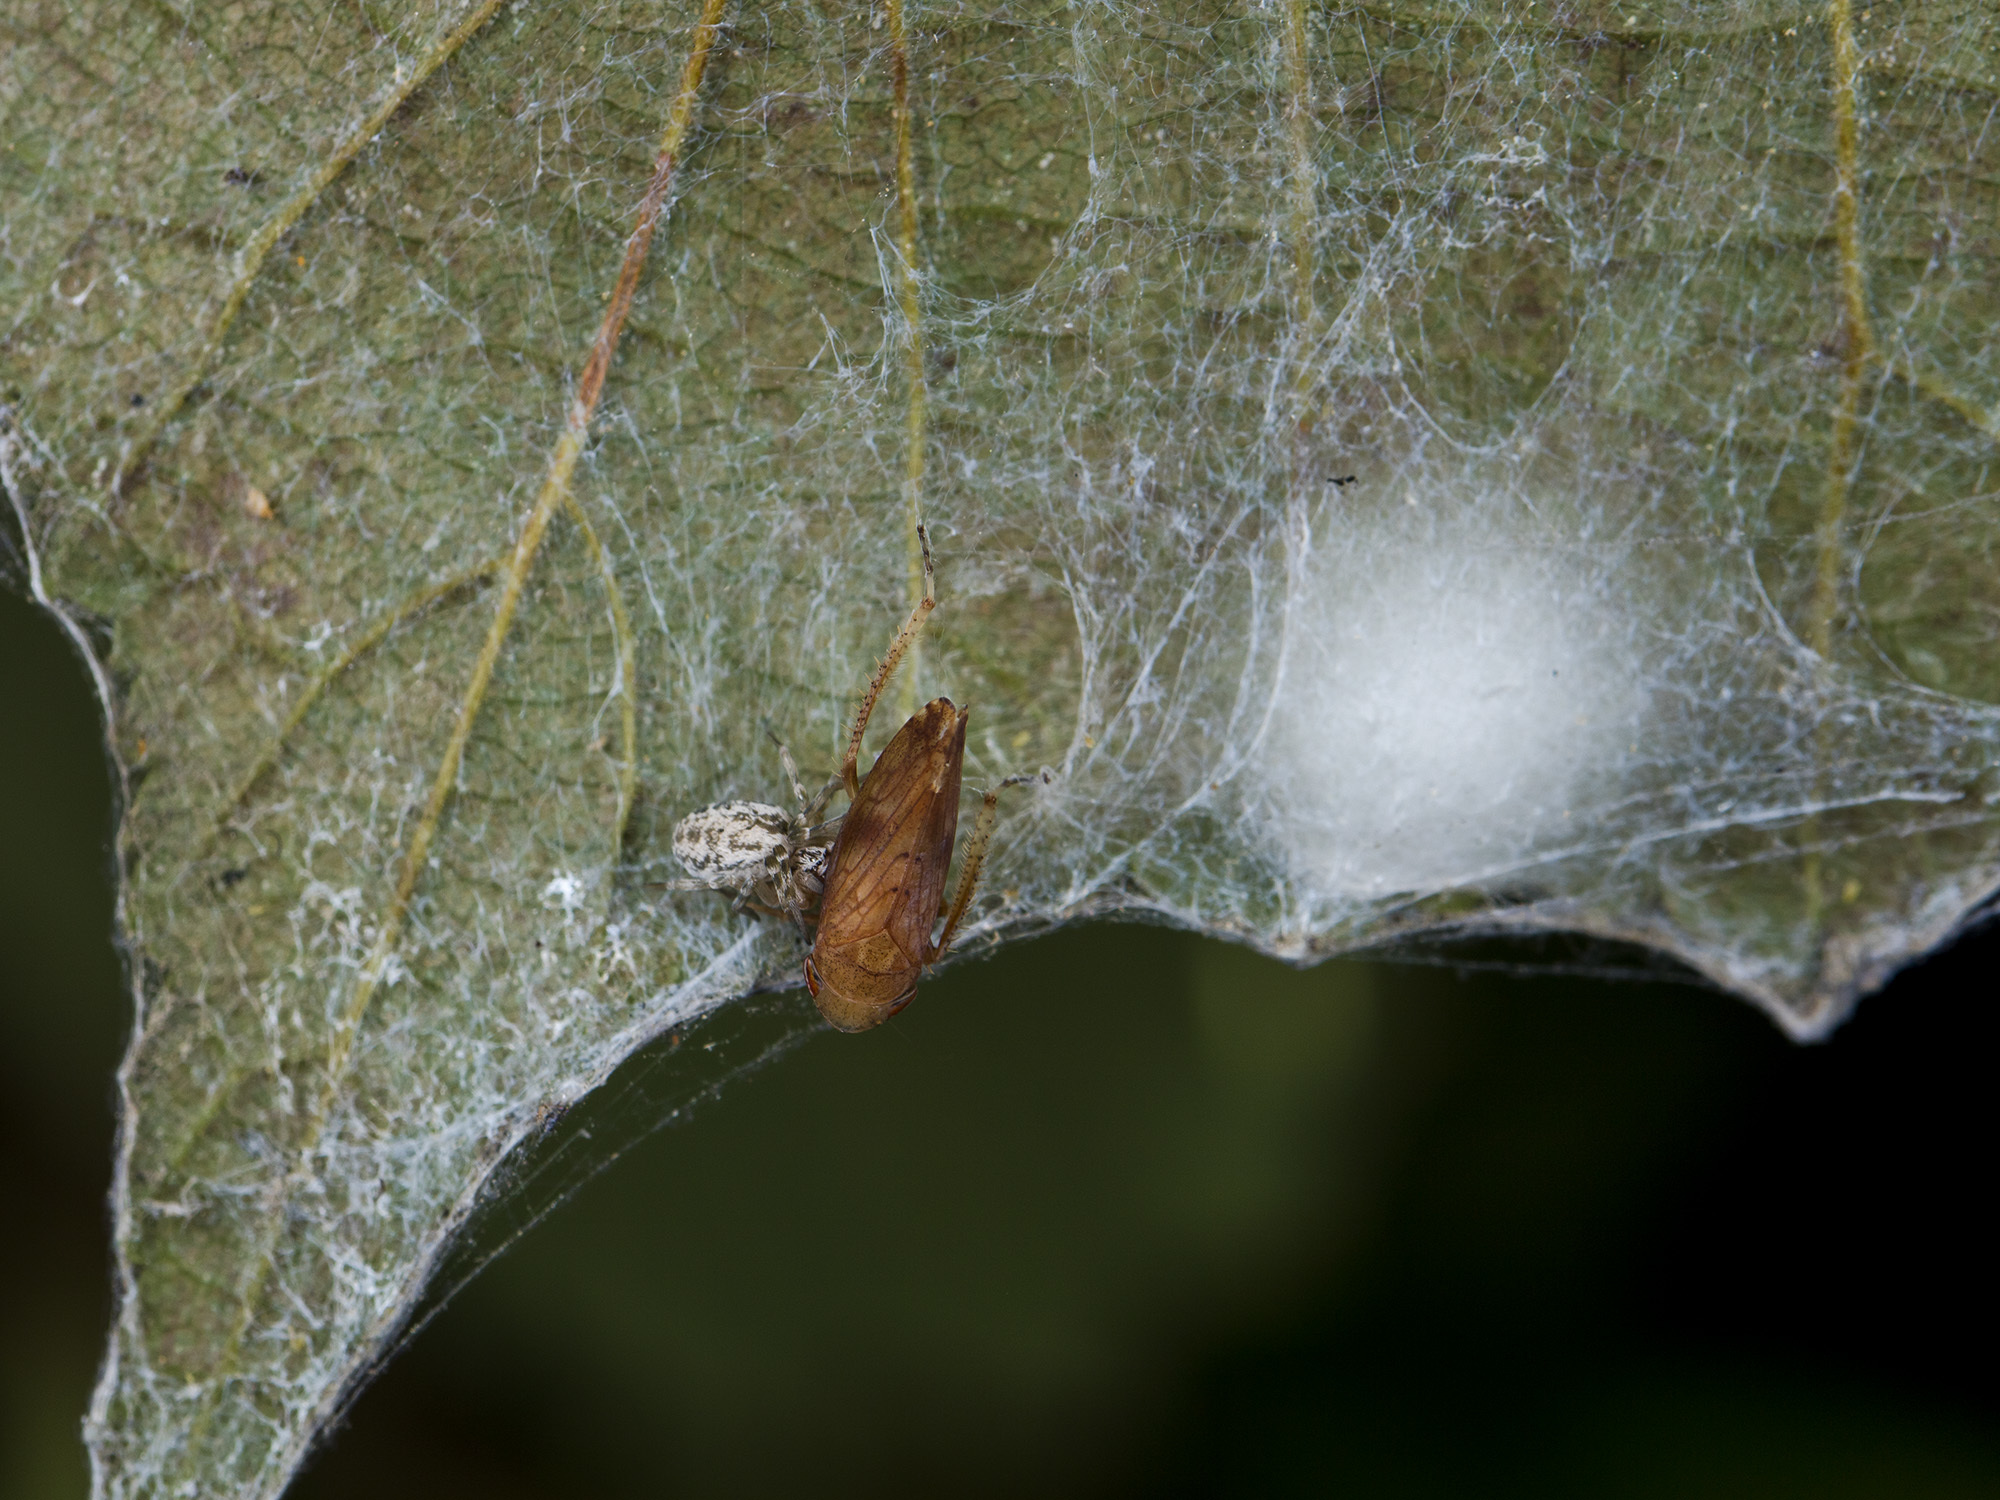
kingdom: Animalia
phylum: Arthropoda
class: Arachnida
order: Araneae
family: Dictynidae
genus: Dictynomorpha
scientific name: Dictynomorpha strandi
